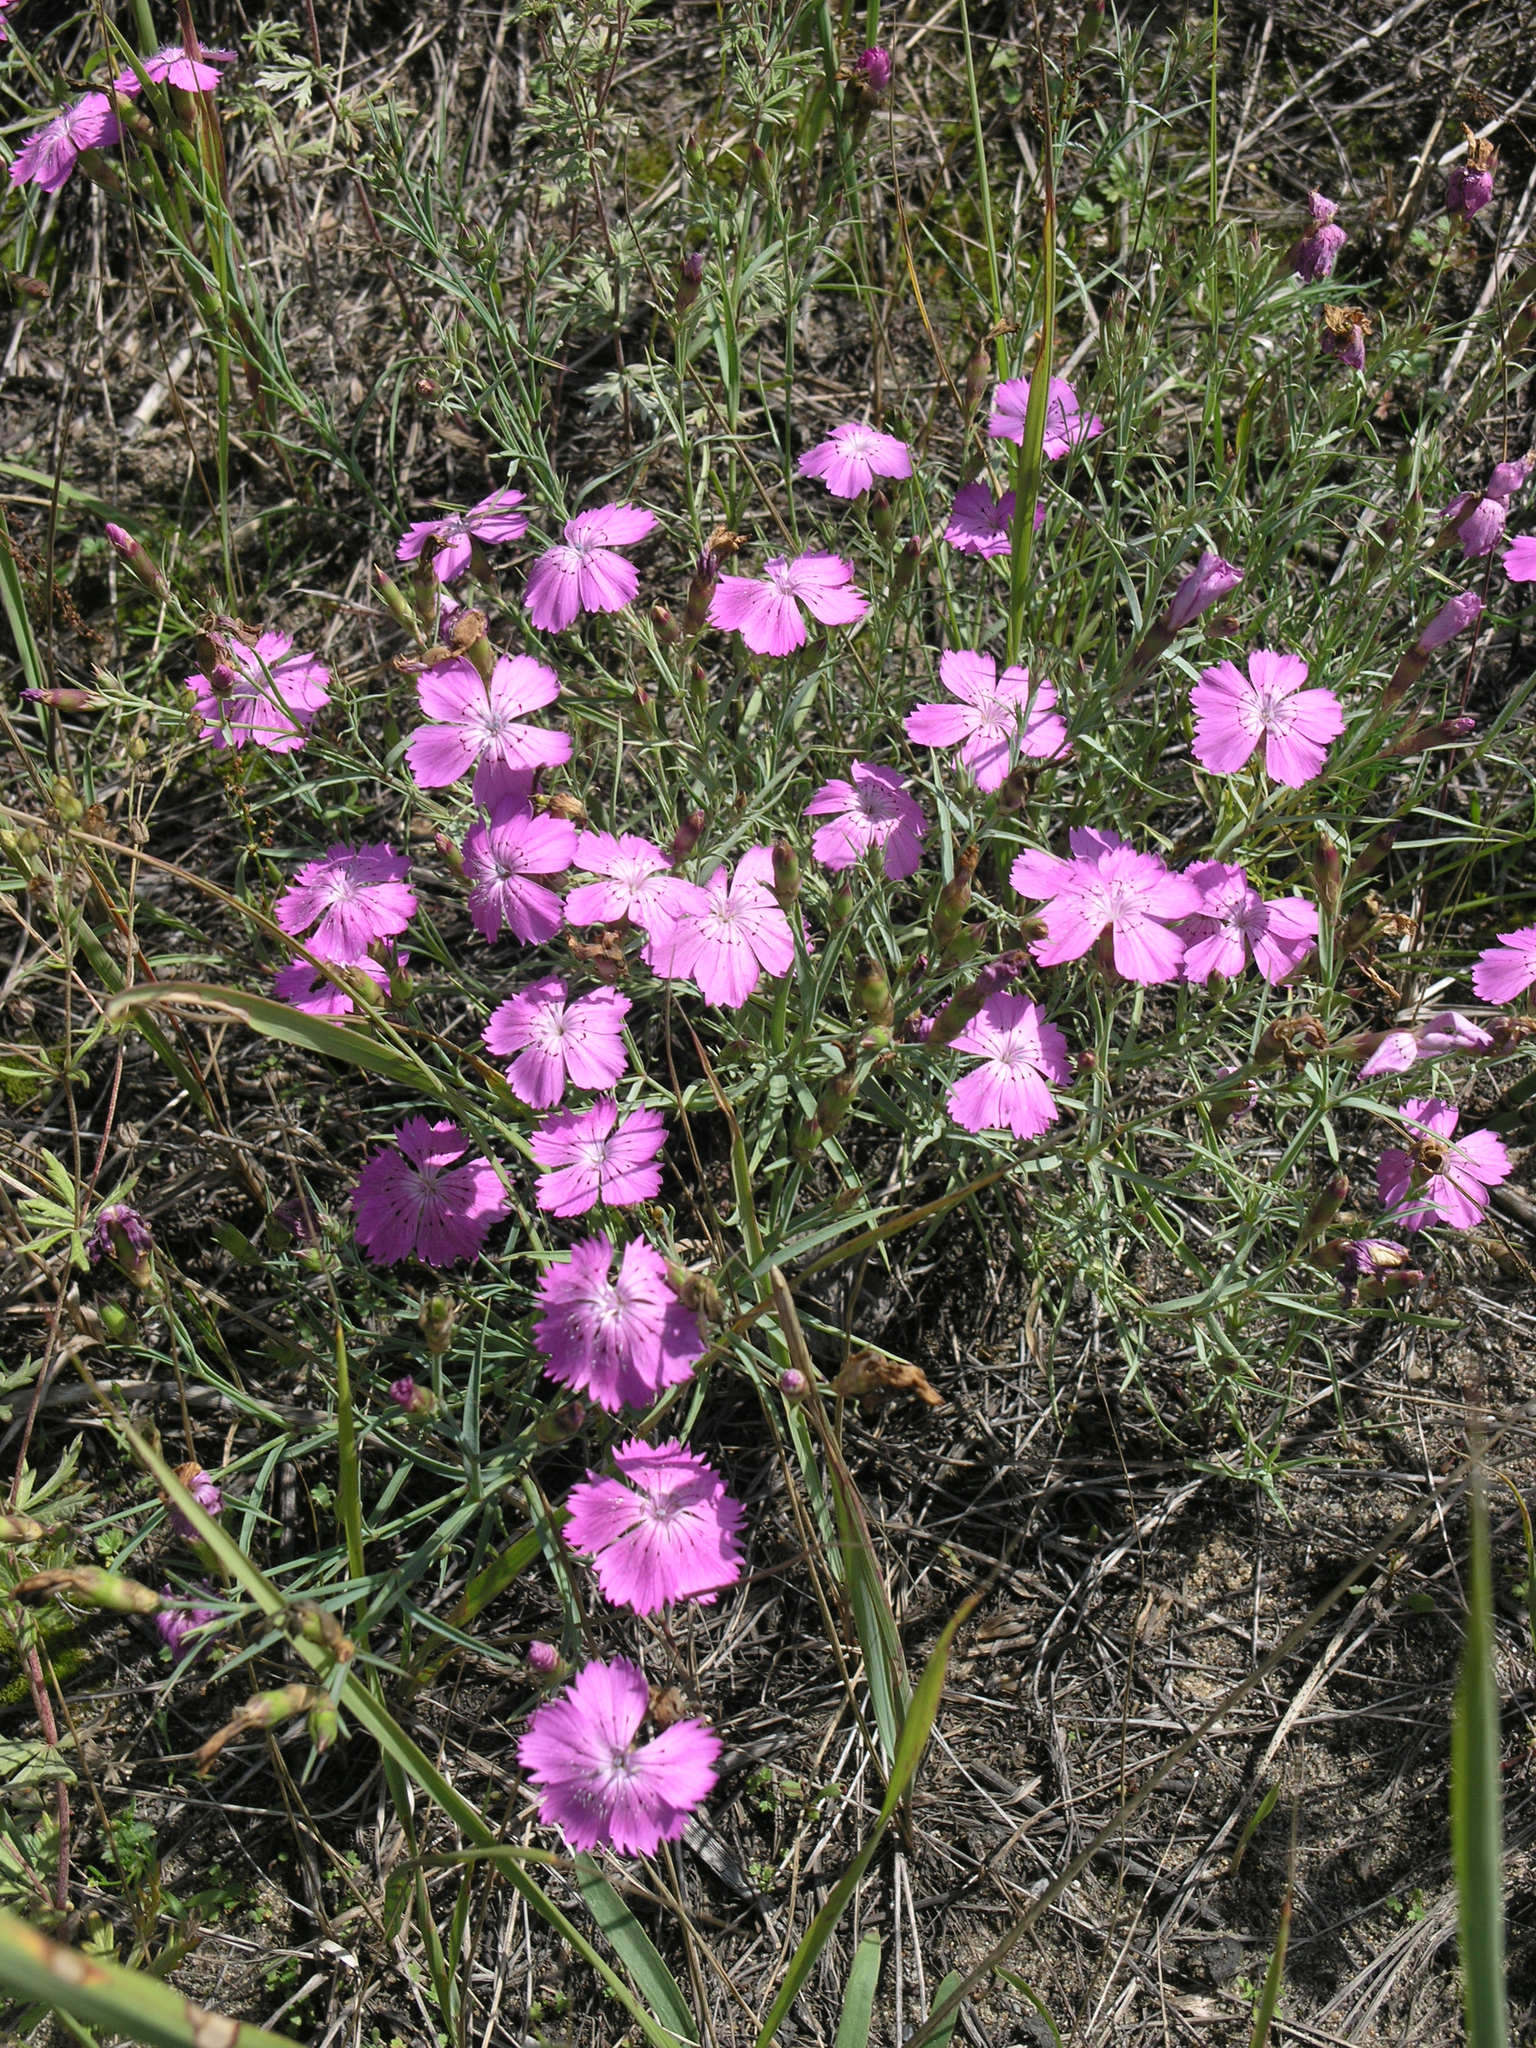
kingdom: Plantae
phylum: Tracheophyta
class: Magnoliopsida
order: Caryophyllales
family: Caryophyllaceae
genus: Dianthus
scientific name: Dianthus chinensis
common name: Rainbow pink
